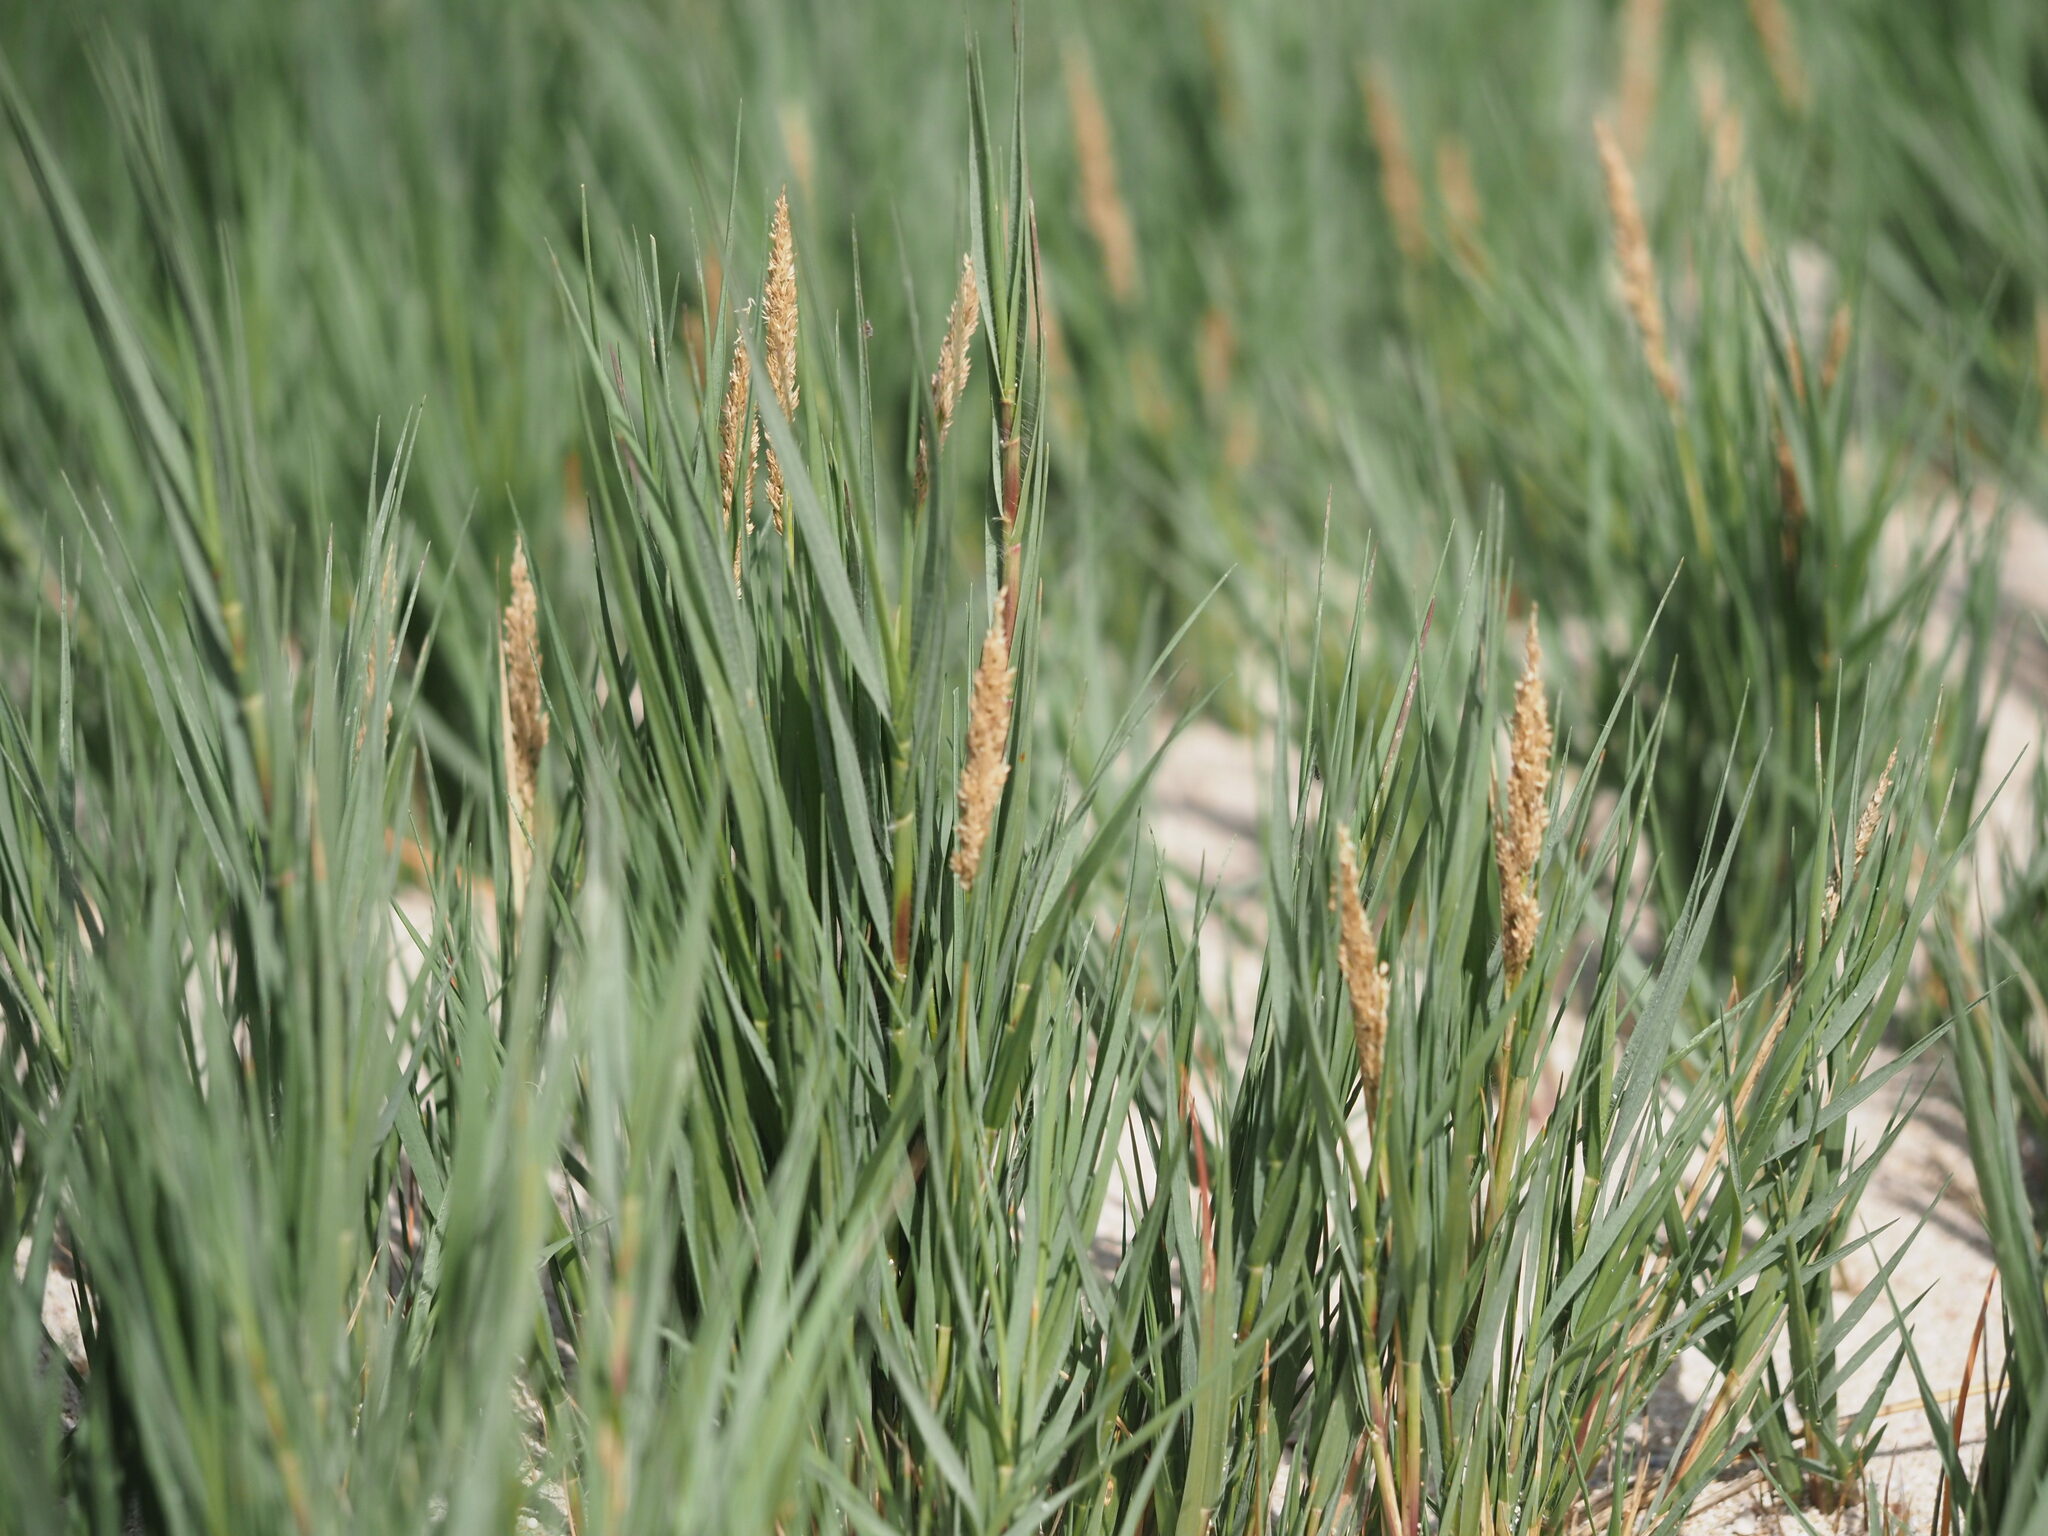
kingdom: Plantae
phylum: Tracheophyta
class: Liliopsida
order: Poales
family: Poaceae
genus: Sporobolus
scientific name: Sporobolus virginicus
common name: Beach dropseed
